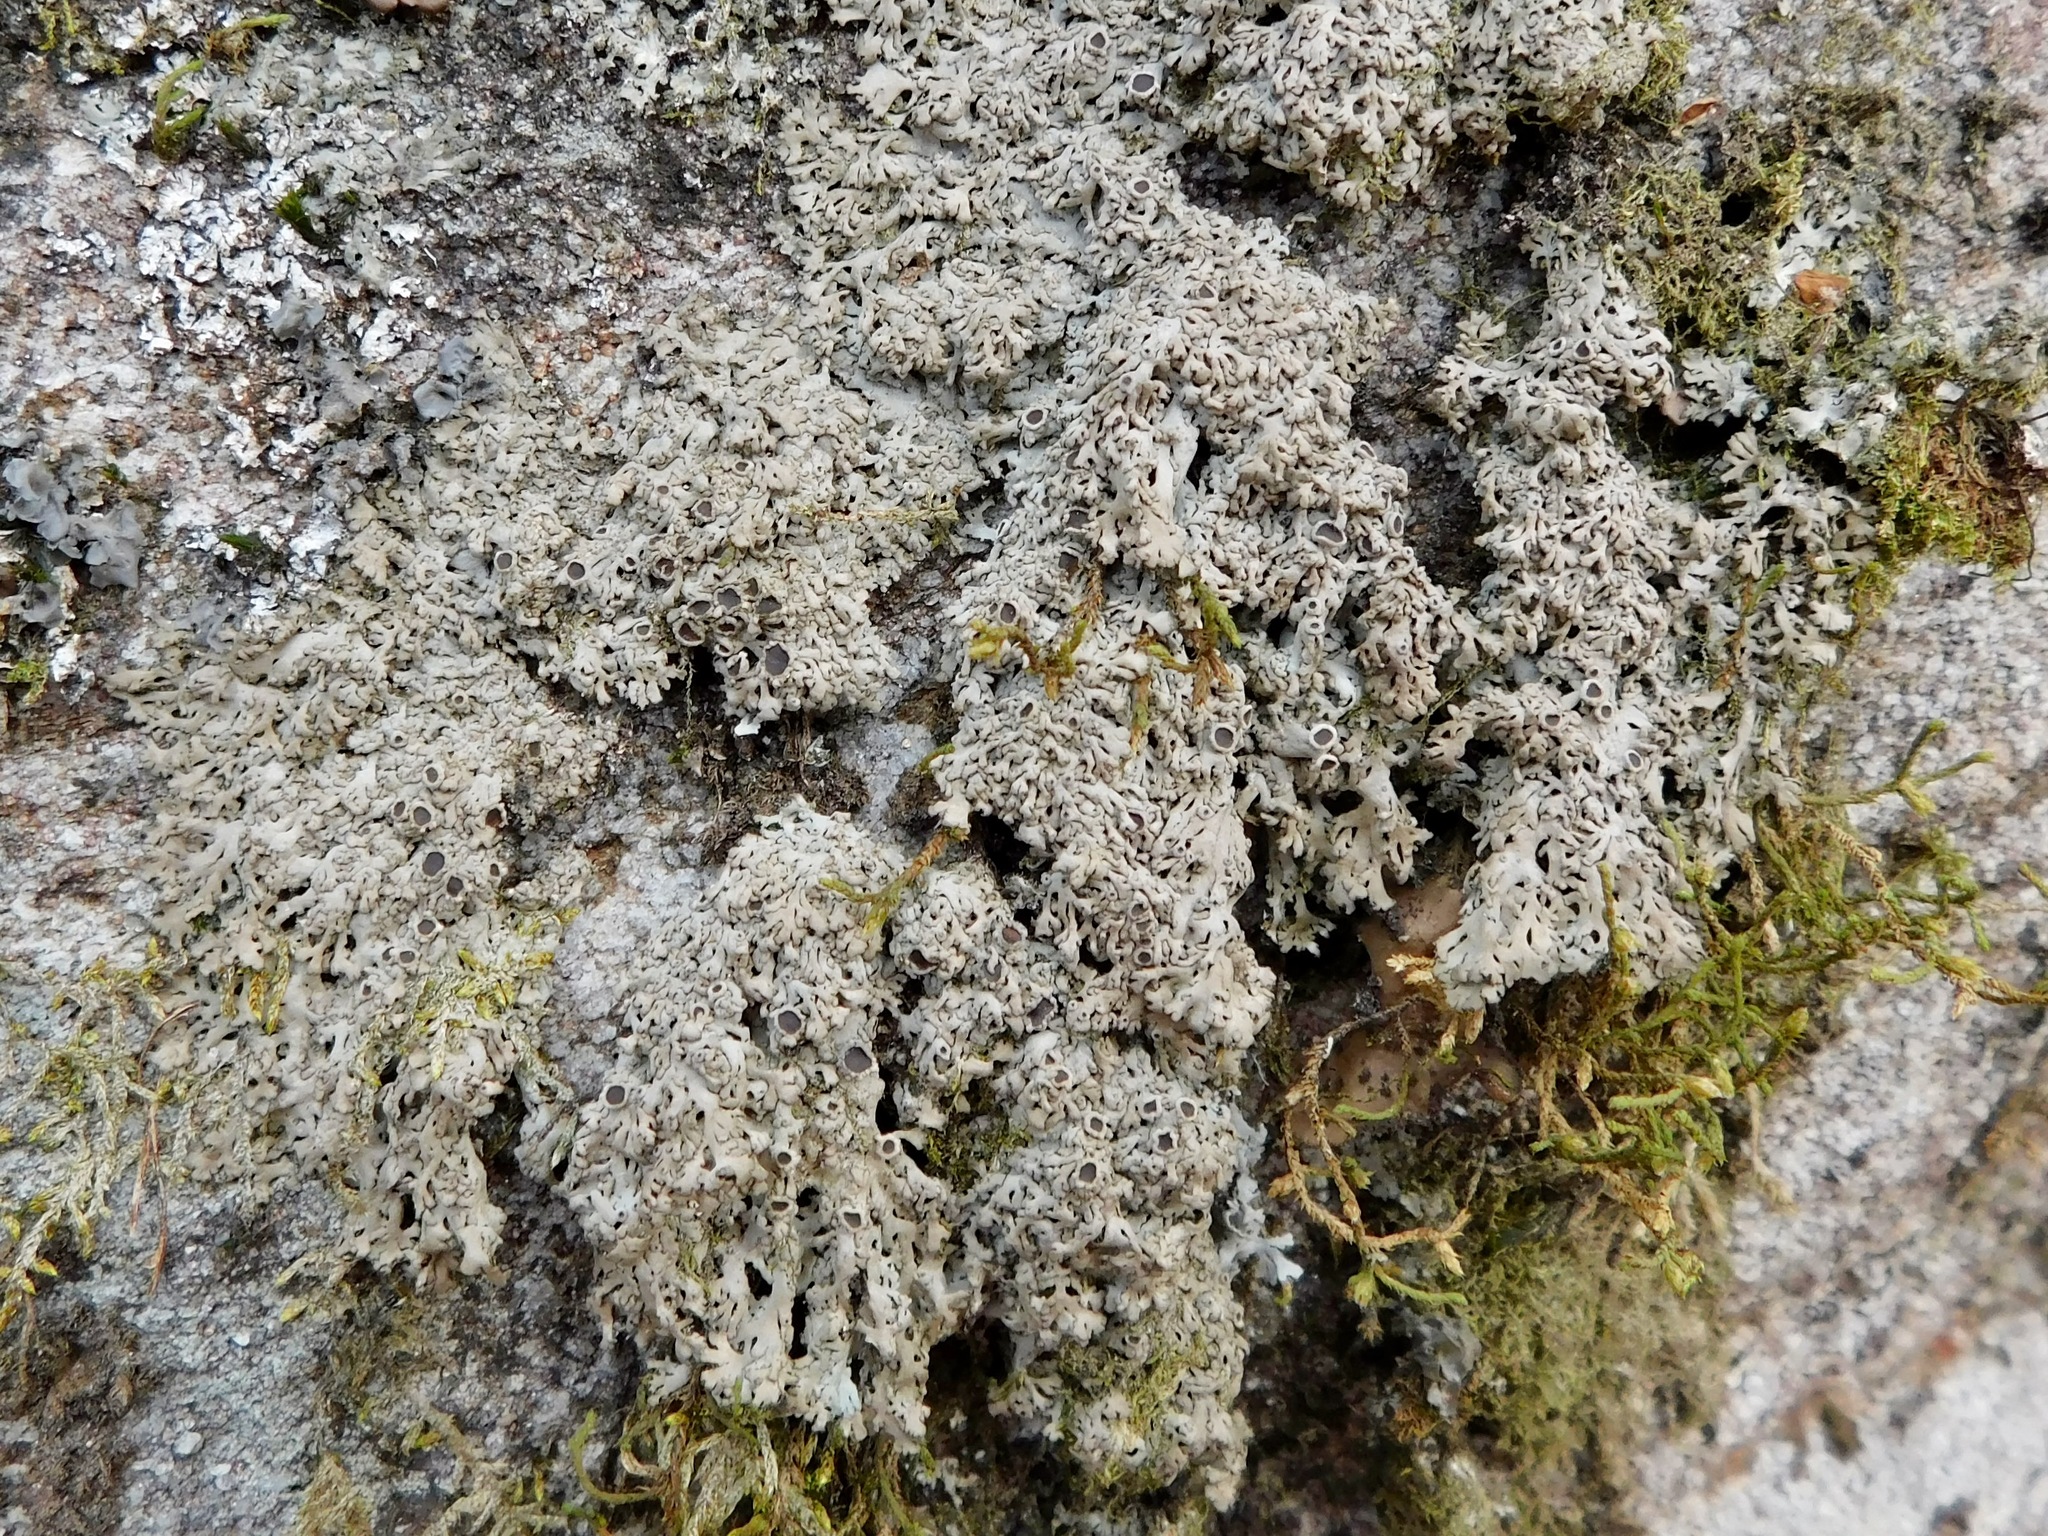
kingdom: Fungi
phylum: Ascomycota
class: Lecanoromycetes
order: Caliciales
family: Physciaceae
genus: Kurokawia
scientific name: Kurokawia palmulata
